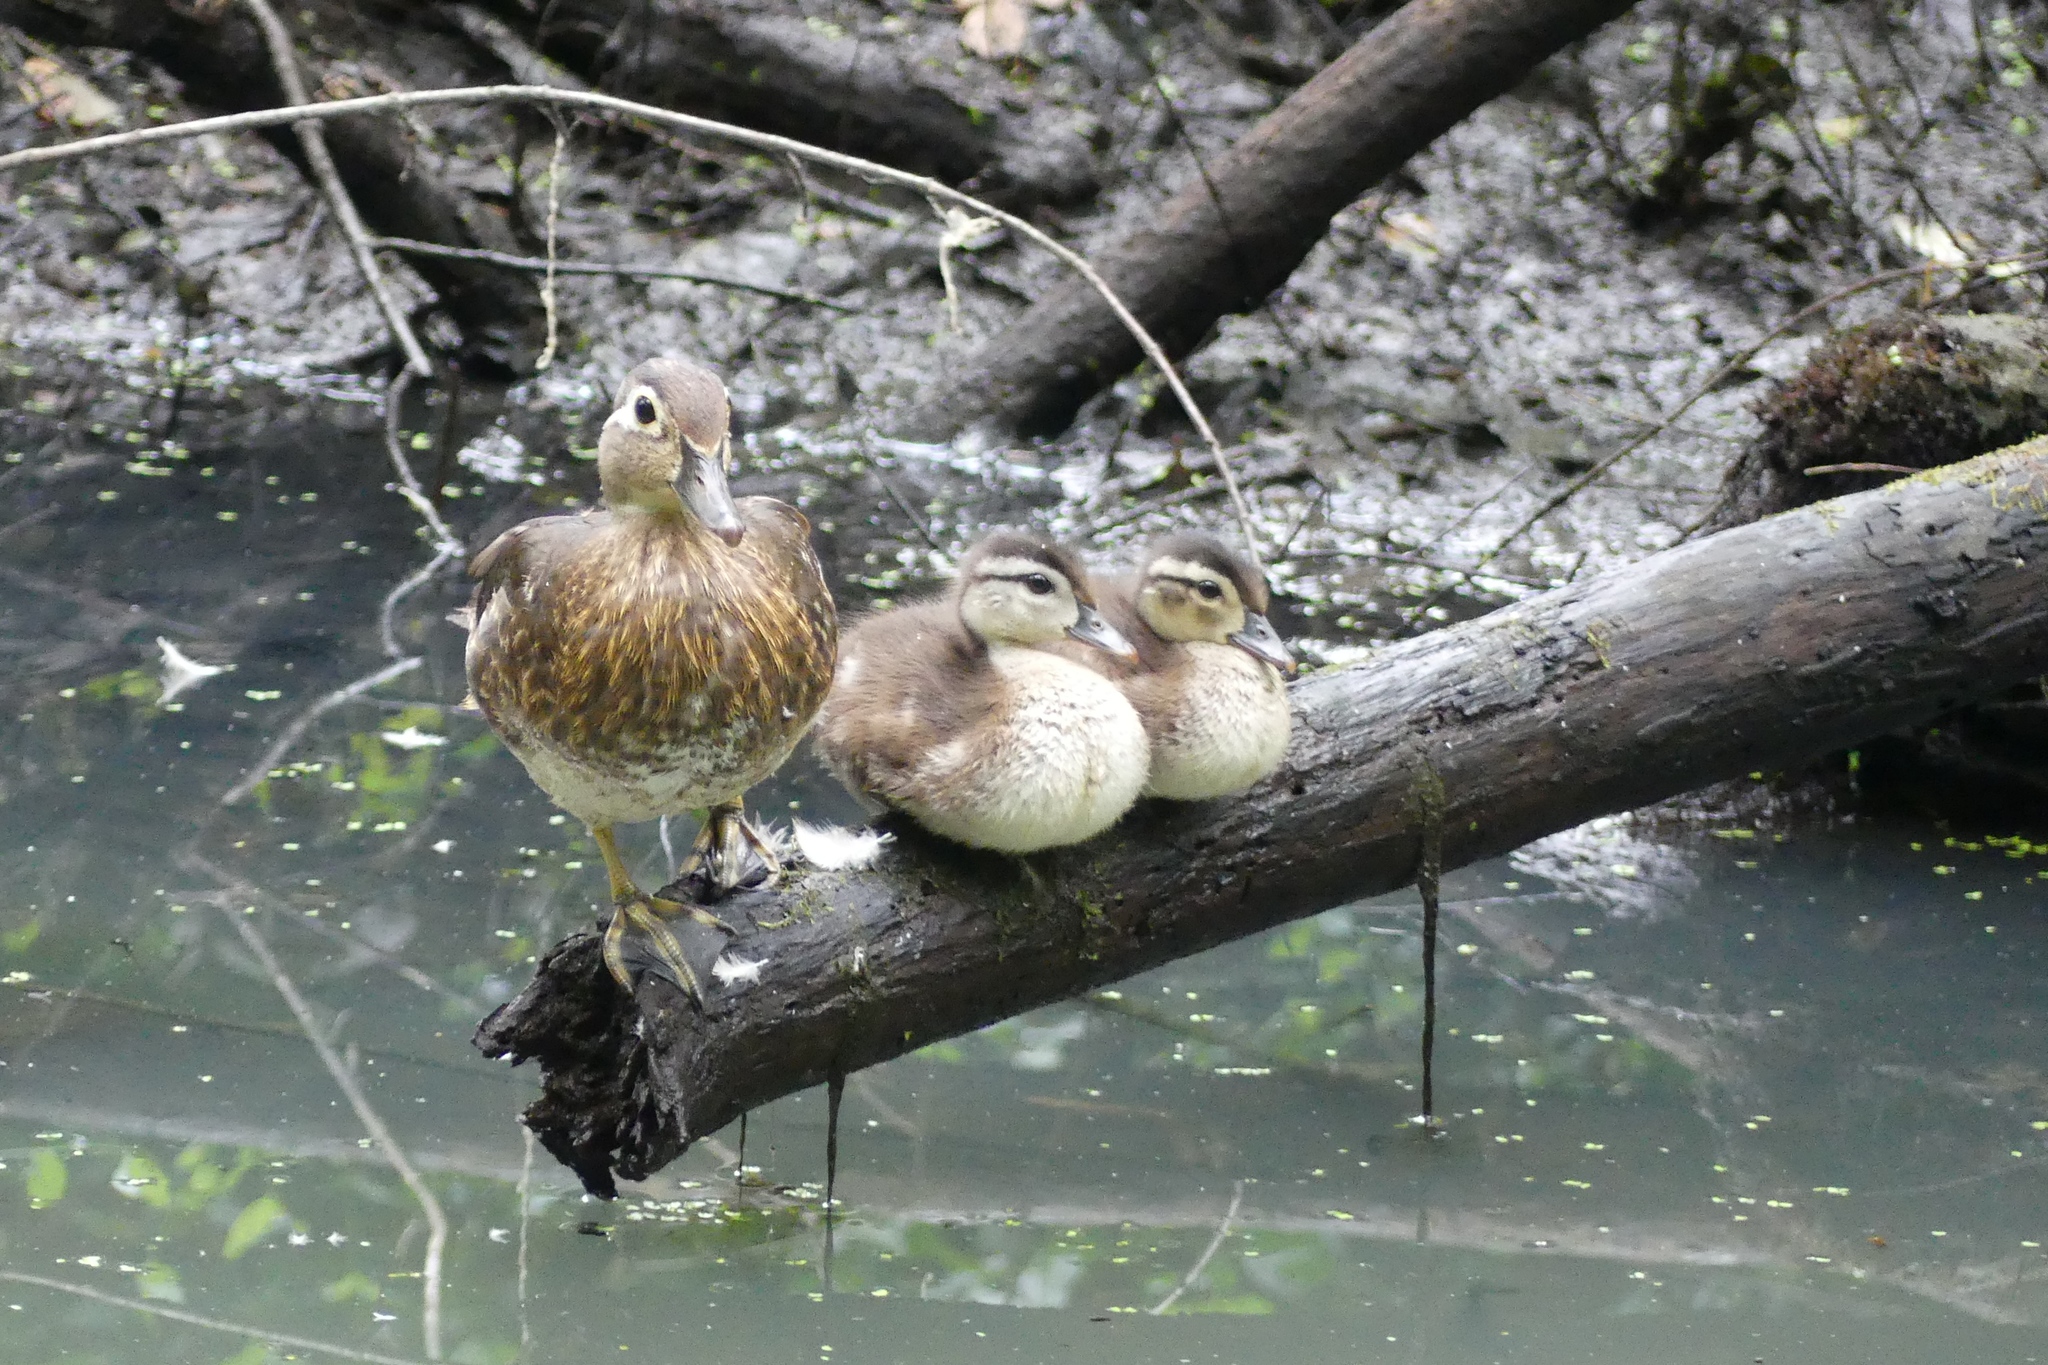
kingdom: Animalia
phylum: Chordata
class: Aves
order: Anseriformes
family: Anatidae
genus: Aix
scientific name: Aix sponsa
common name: Wood duck
